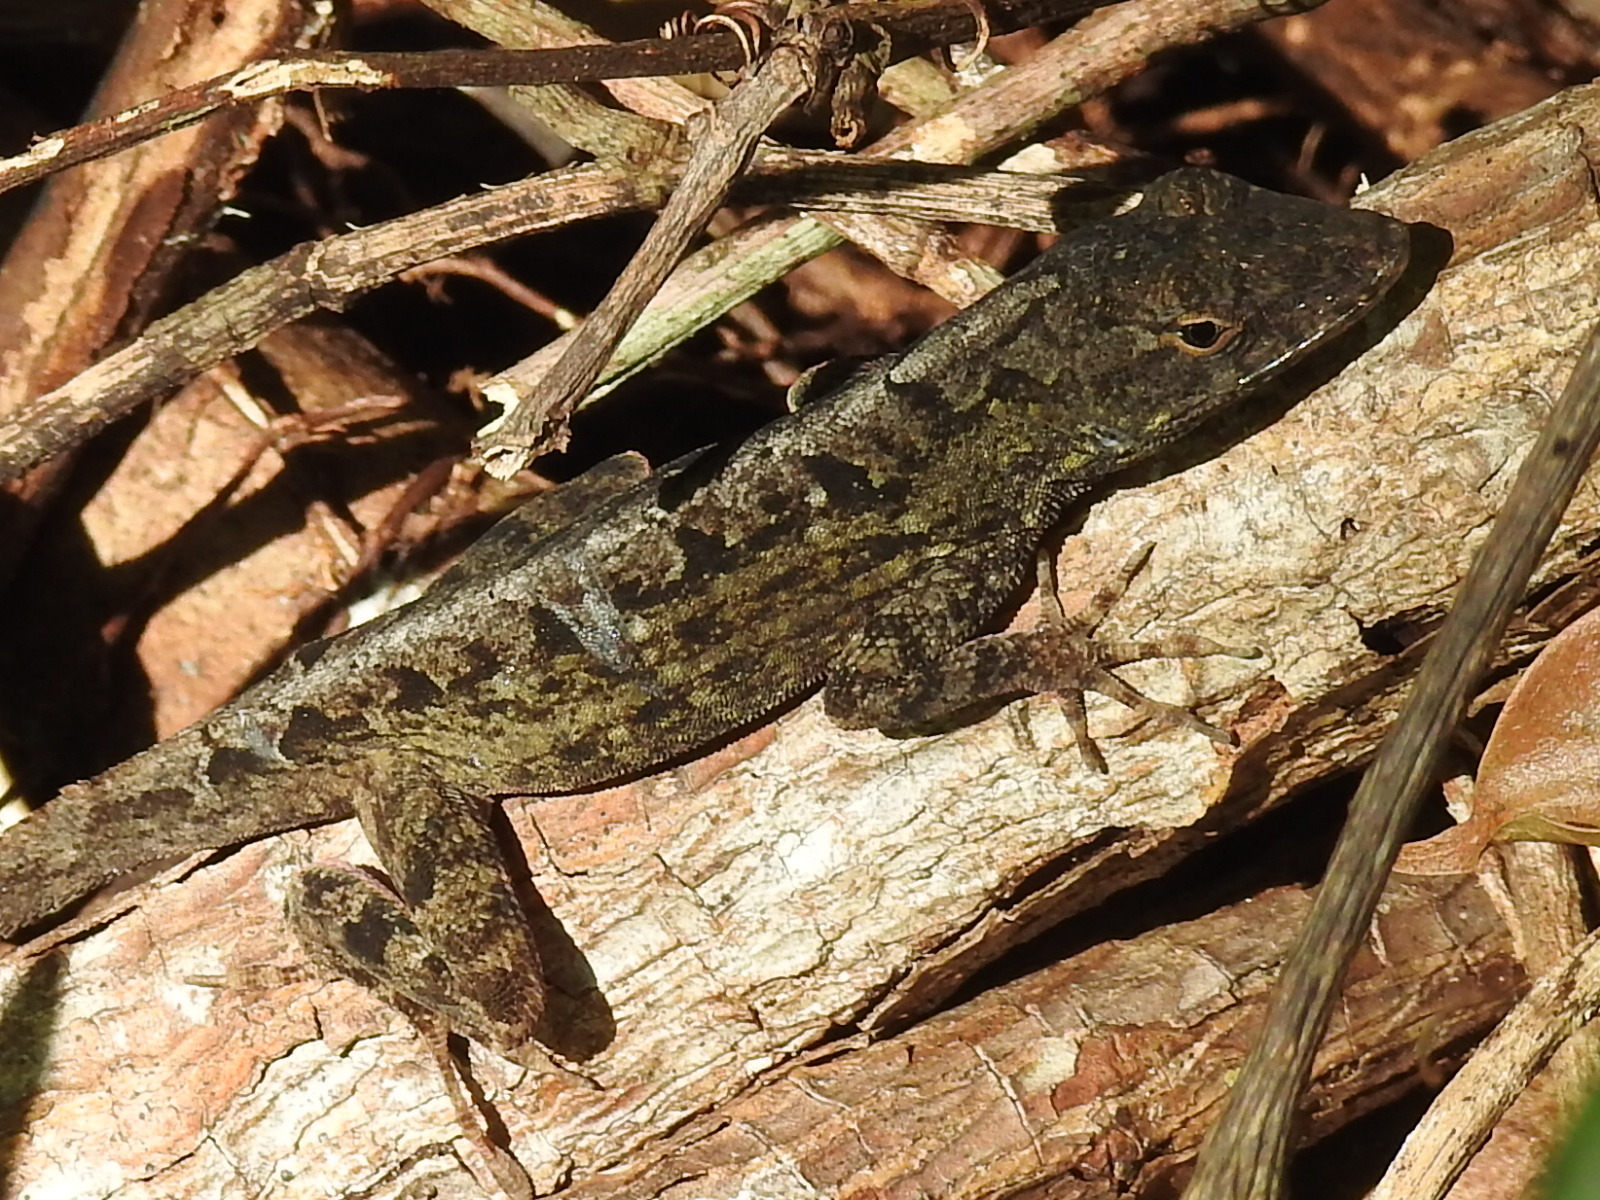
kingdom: Animalia
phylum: Chordata
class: Squamata
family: Dactyloidae
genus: Anolis
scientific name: Anolis sagrei
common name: Brown anole
